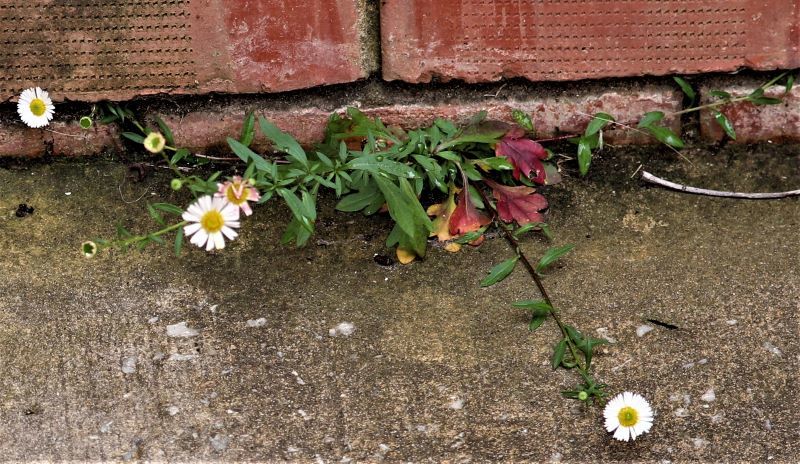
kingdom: Plantae
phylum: Tracheophyta
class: Magnoliopsida
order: Asterales
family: Asteraceae
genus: Erigeron
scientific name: Erigeron karvinskianus
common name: Mexican fleabane
